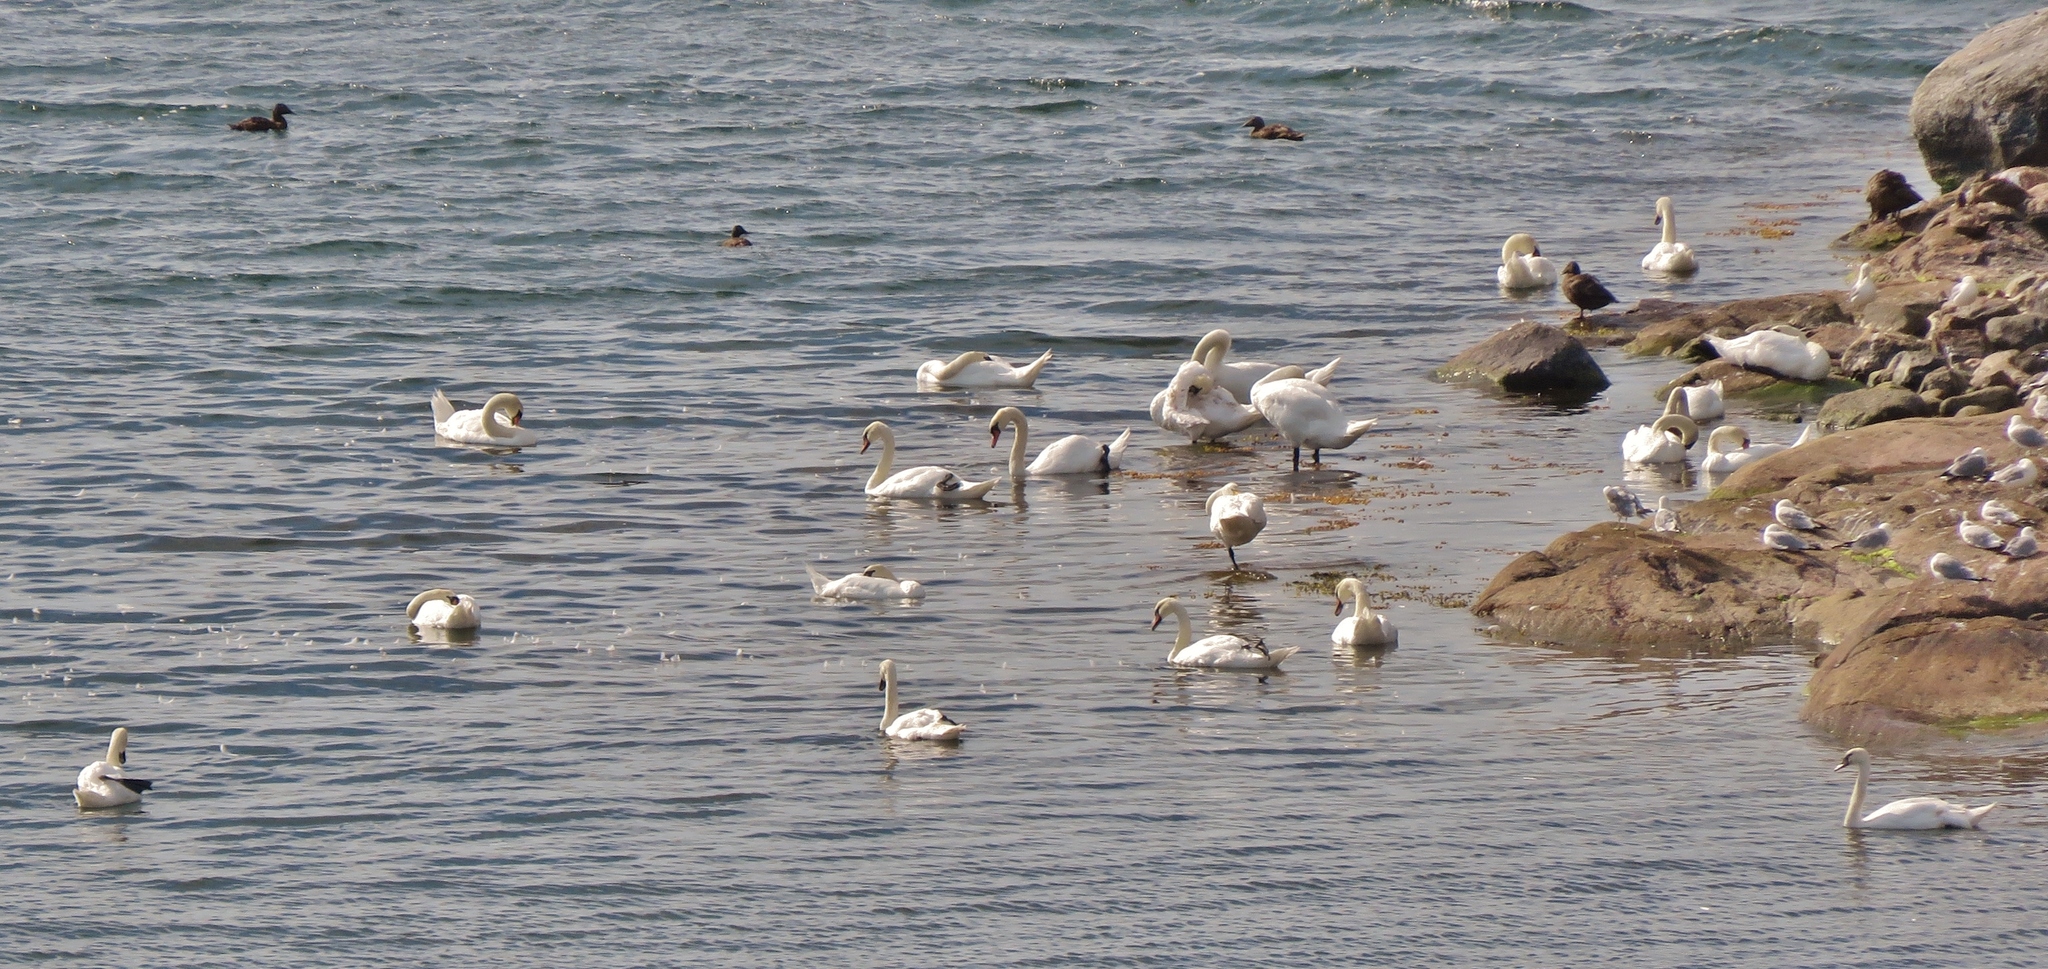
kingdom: Animalia
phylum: Chordata
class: Aves
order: Anseriformes
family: Anatidae
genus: Cygnus
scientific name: Cygnus olor
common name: Mute swan
